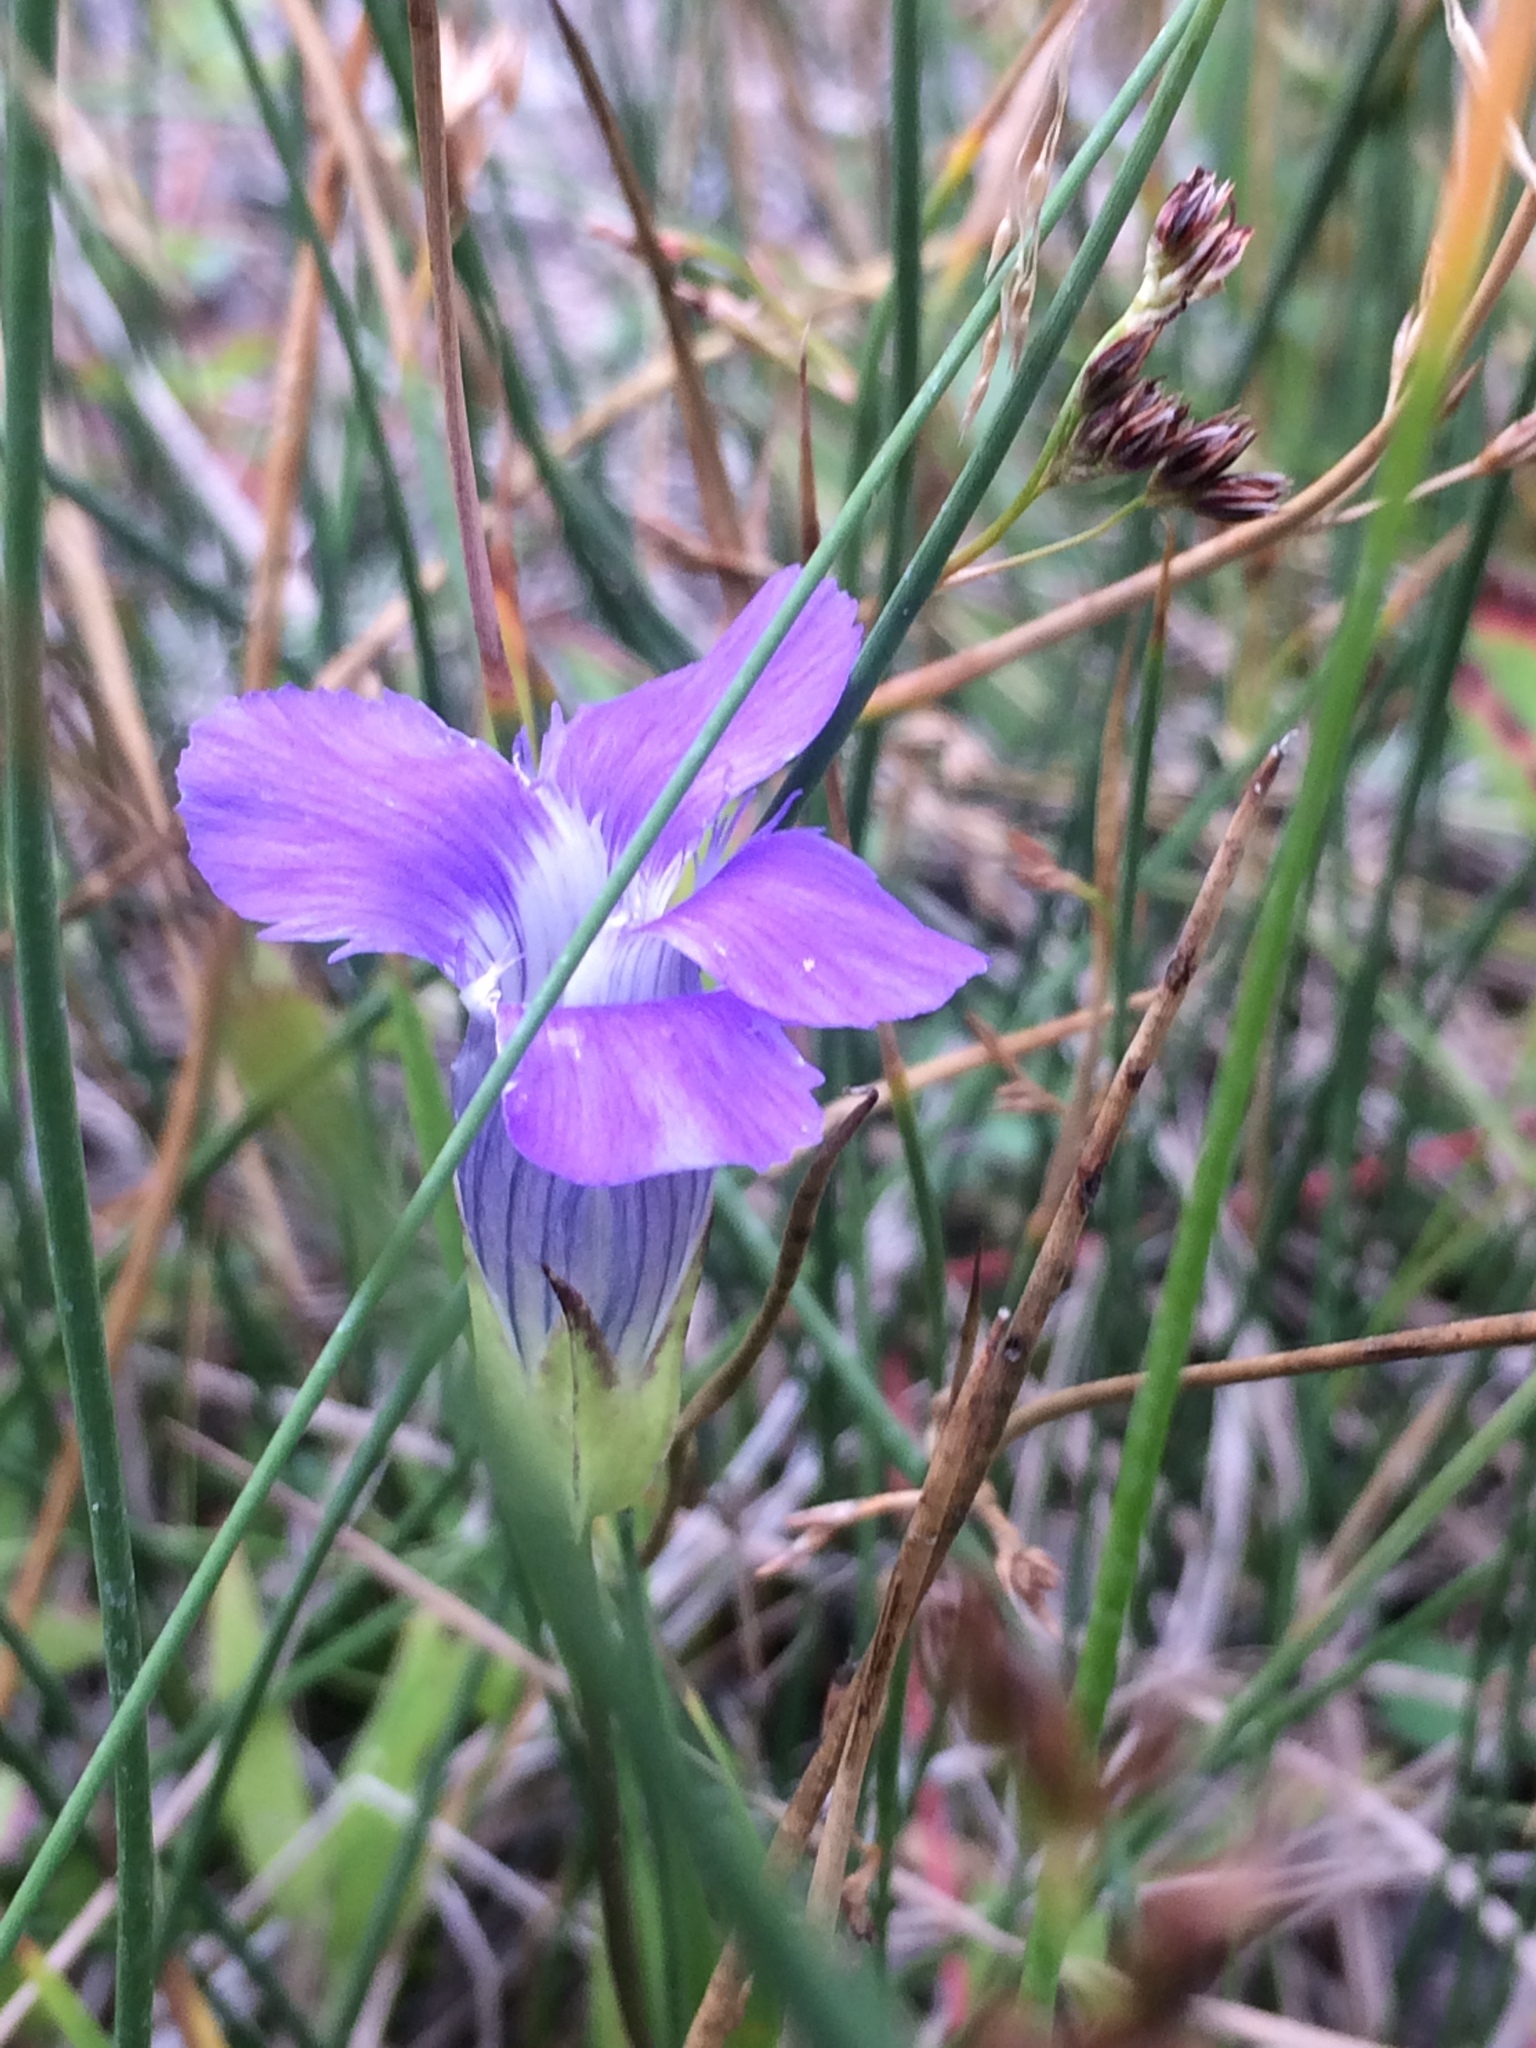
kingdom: Plantae
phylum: Tracheophyta
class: Magnoliopsida
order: Gentianales
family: Gentianaceae
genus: Gentianopsis
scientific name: Gentianopsis thermalis
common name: Rocky mountain fringed-gentian
